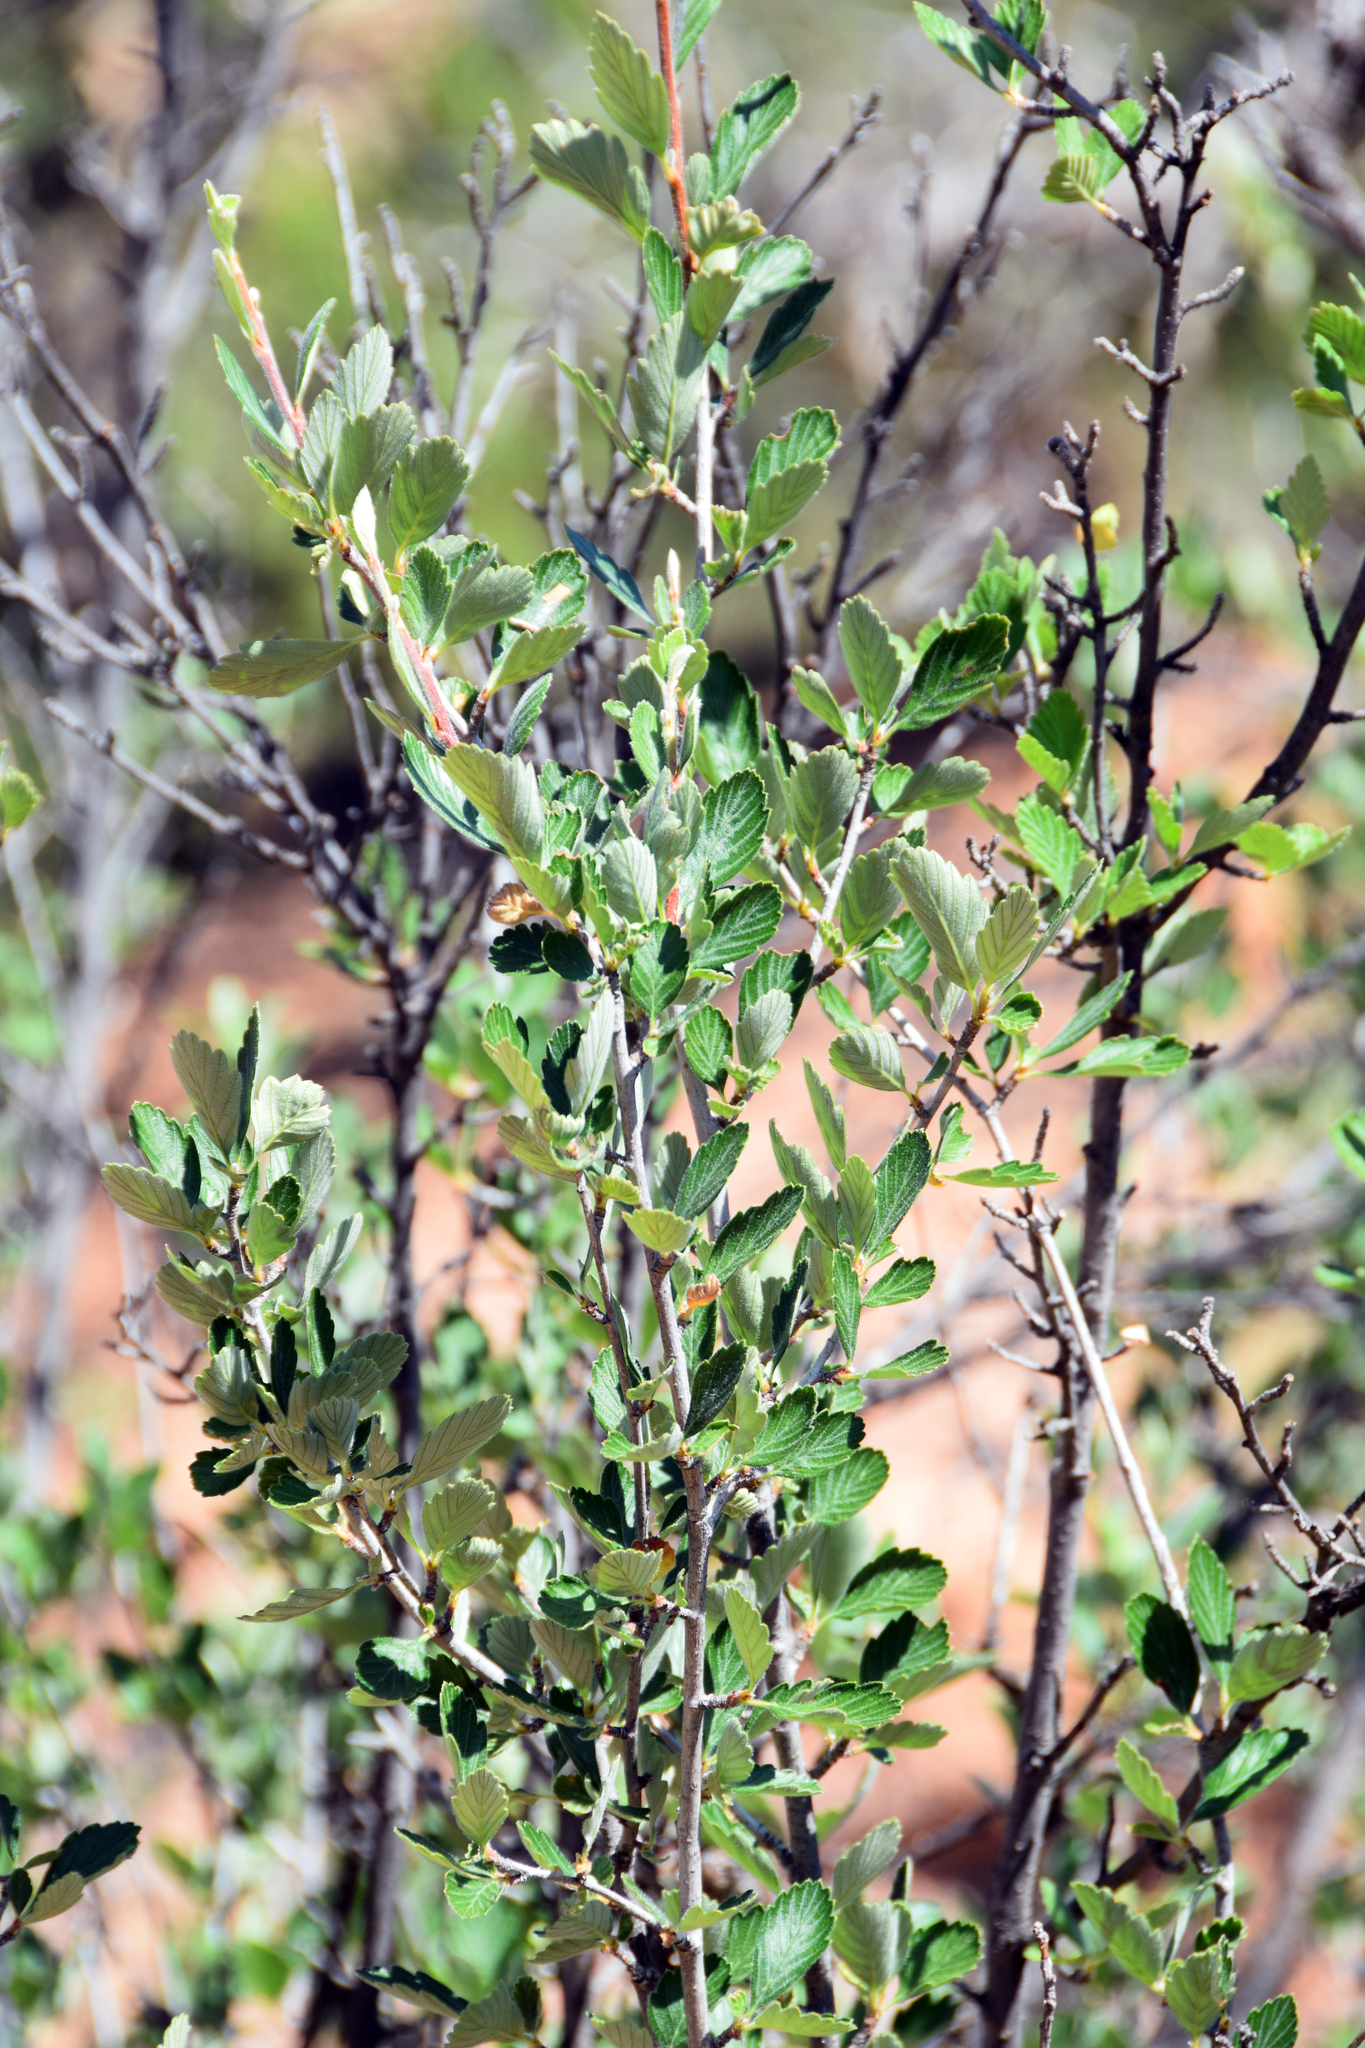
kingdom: Plantae
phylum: Tracheophyta
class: Magnoliopsida
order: Rosales
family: Rosaceae
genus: Cercocarpus
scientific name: Cercocarpus montanus
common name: Alder-leaf cercocarpus
